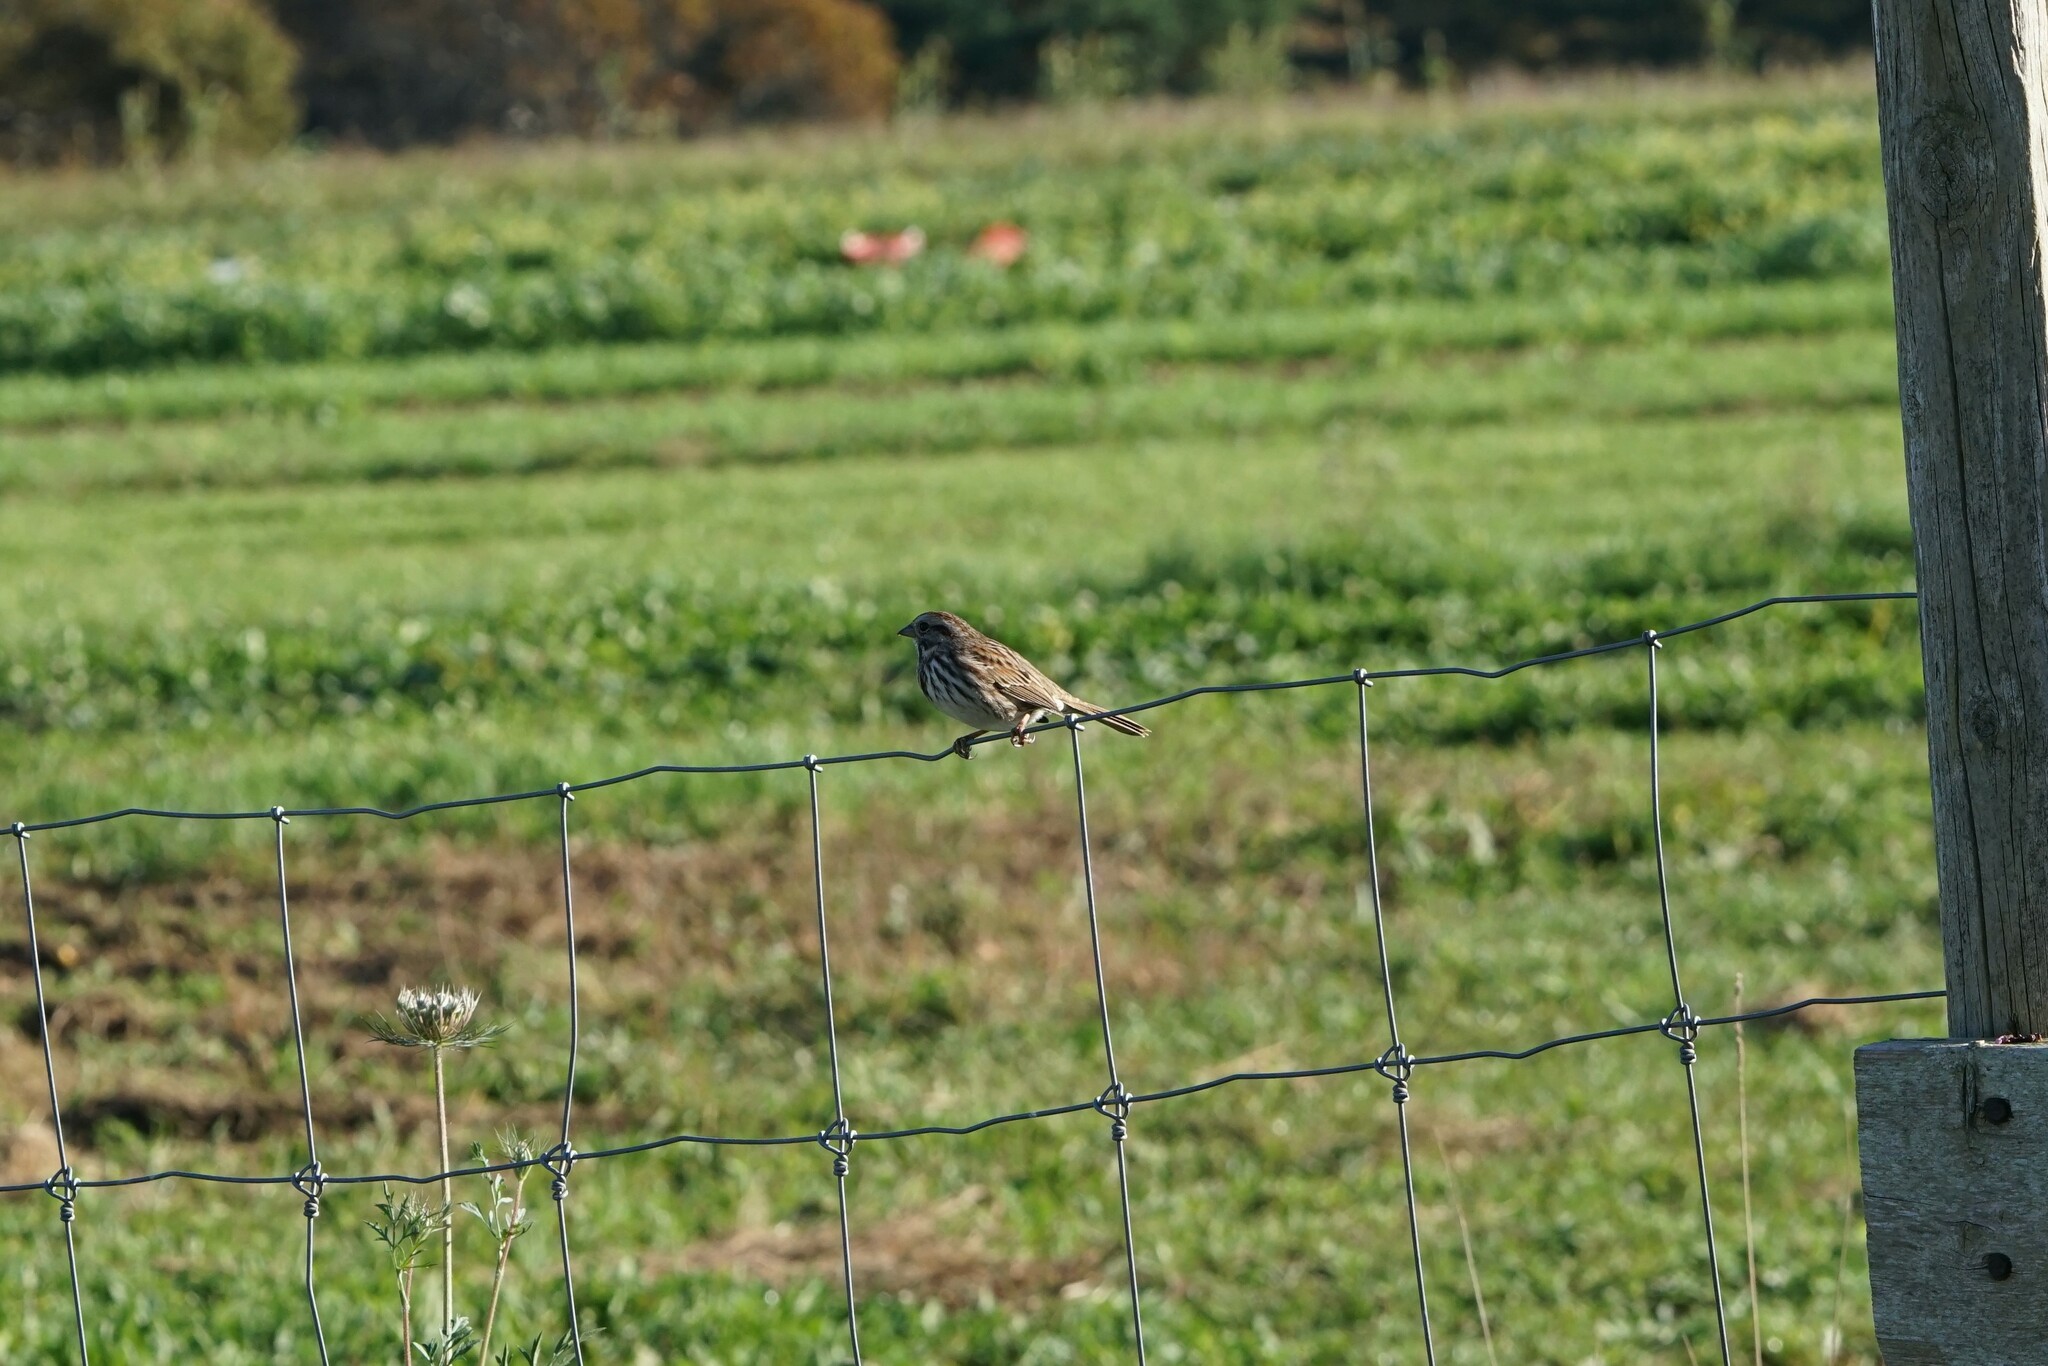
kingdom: Animalia
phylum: Chordata
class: Aves
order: Passeriformes
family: Passerellidae
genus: Melospiza
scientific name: Melospiza melodia
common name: Song sparrow
